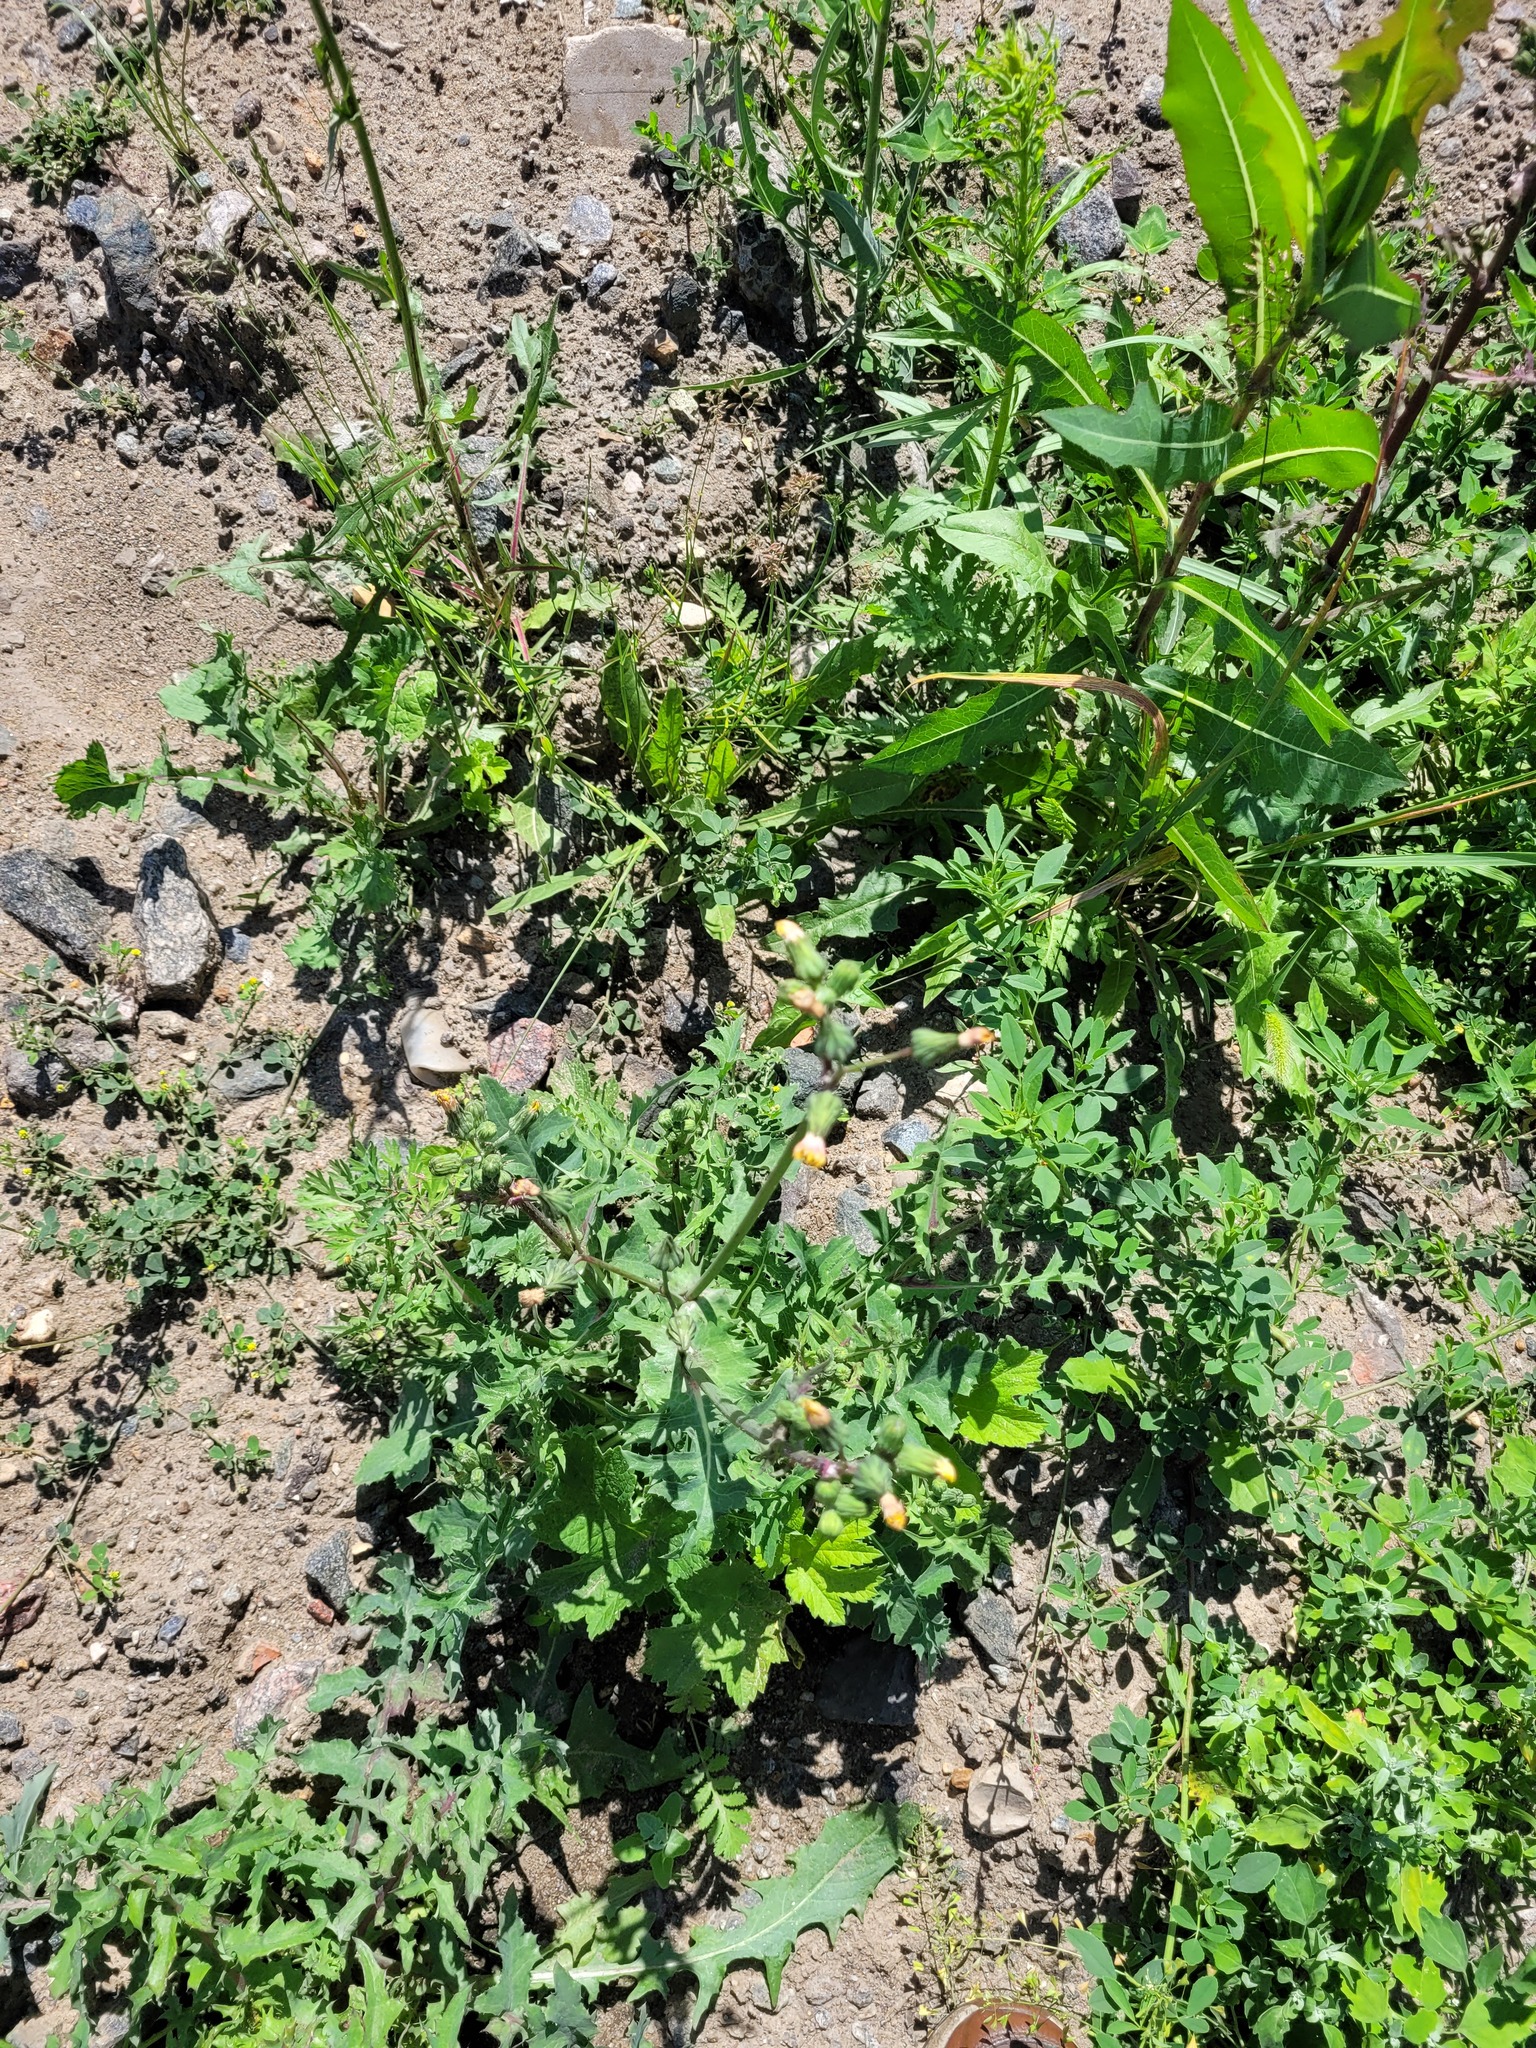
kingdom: Plantae
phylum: Tracheophyta
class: Magnoliopsida
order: Asterales
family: Asteraceae
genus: Sonchus
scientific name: Sonchus oleraceus
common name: Common sowthistle
